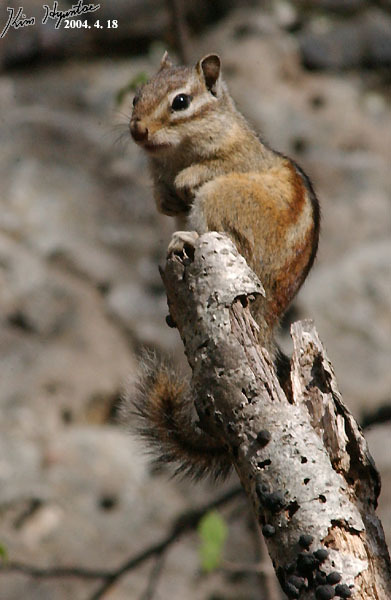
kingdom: Animalia
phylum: Chordata
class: Mammalia
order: Rodentia
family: Sciuridae
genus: Tamias
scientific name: Tamias sibiricus
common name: Siberian chipmunk
